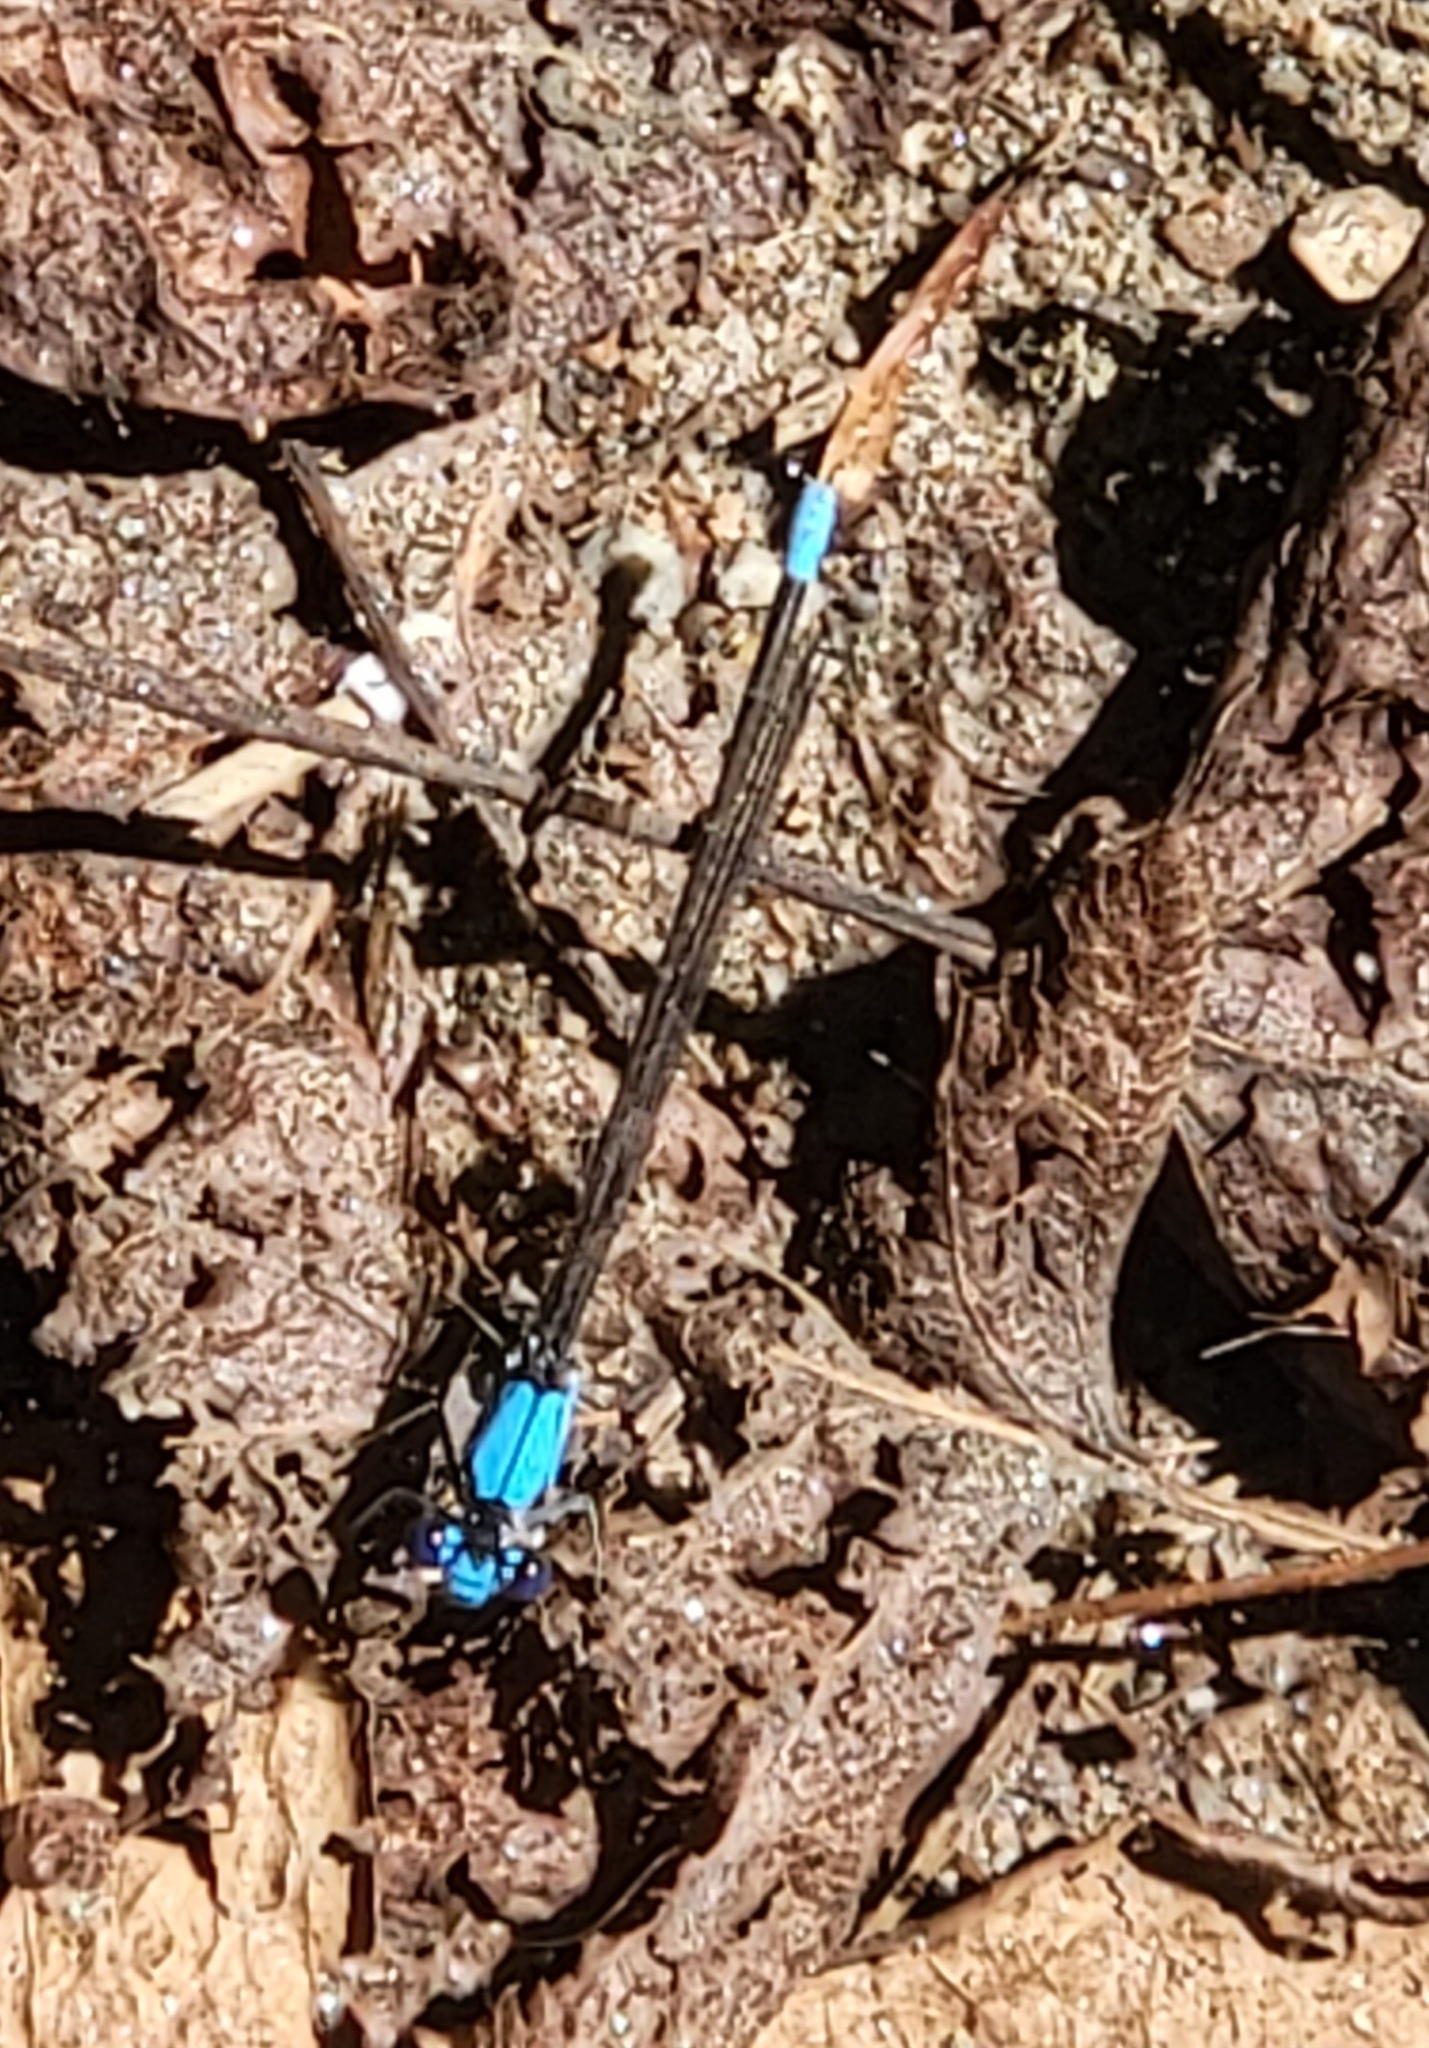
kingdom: Animalia
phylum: Arthropoda
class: Insecta
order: Odonata
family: Coenagrionidae
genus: Argia
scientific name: Argia apicalis
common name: Blue-fronted dancer
